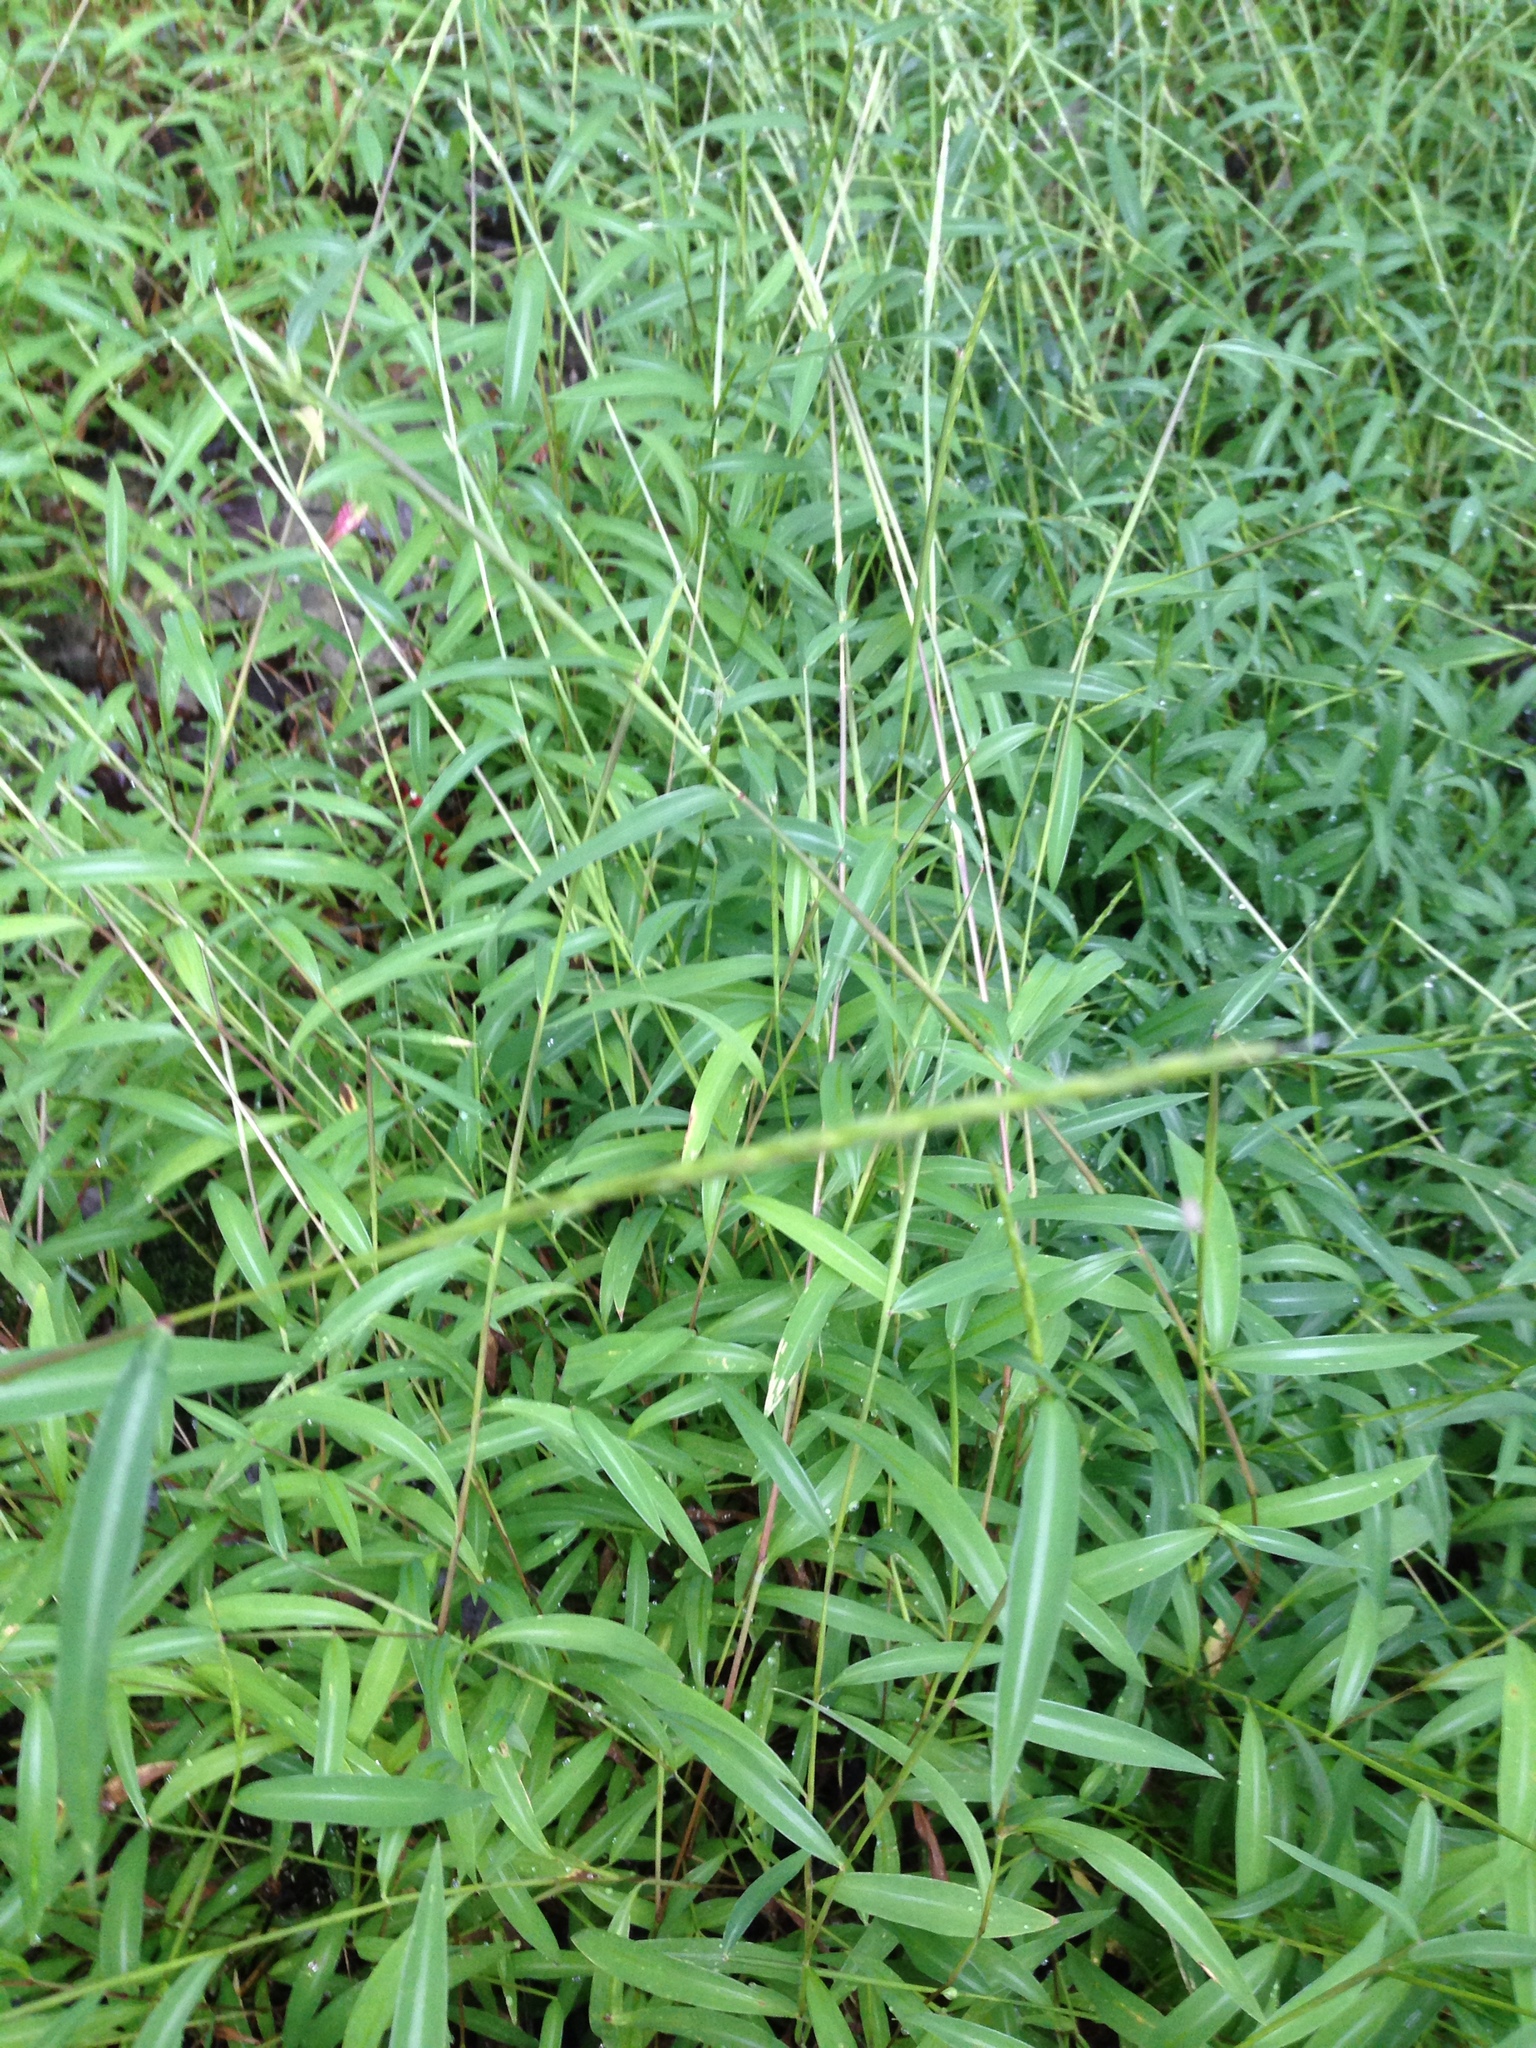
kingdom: Plantae
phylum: Tracheophyta
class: Liliopsida
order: Poales
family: Poaceae
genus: Microstegium
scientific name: Microstegium vimineum
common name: Japanese stiltgrass
